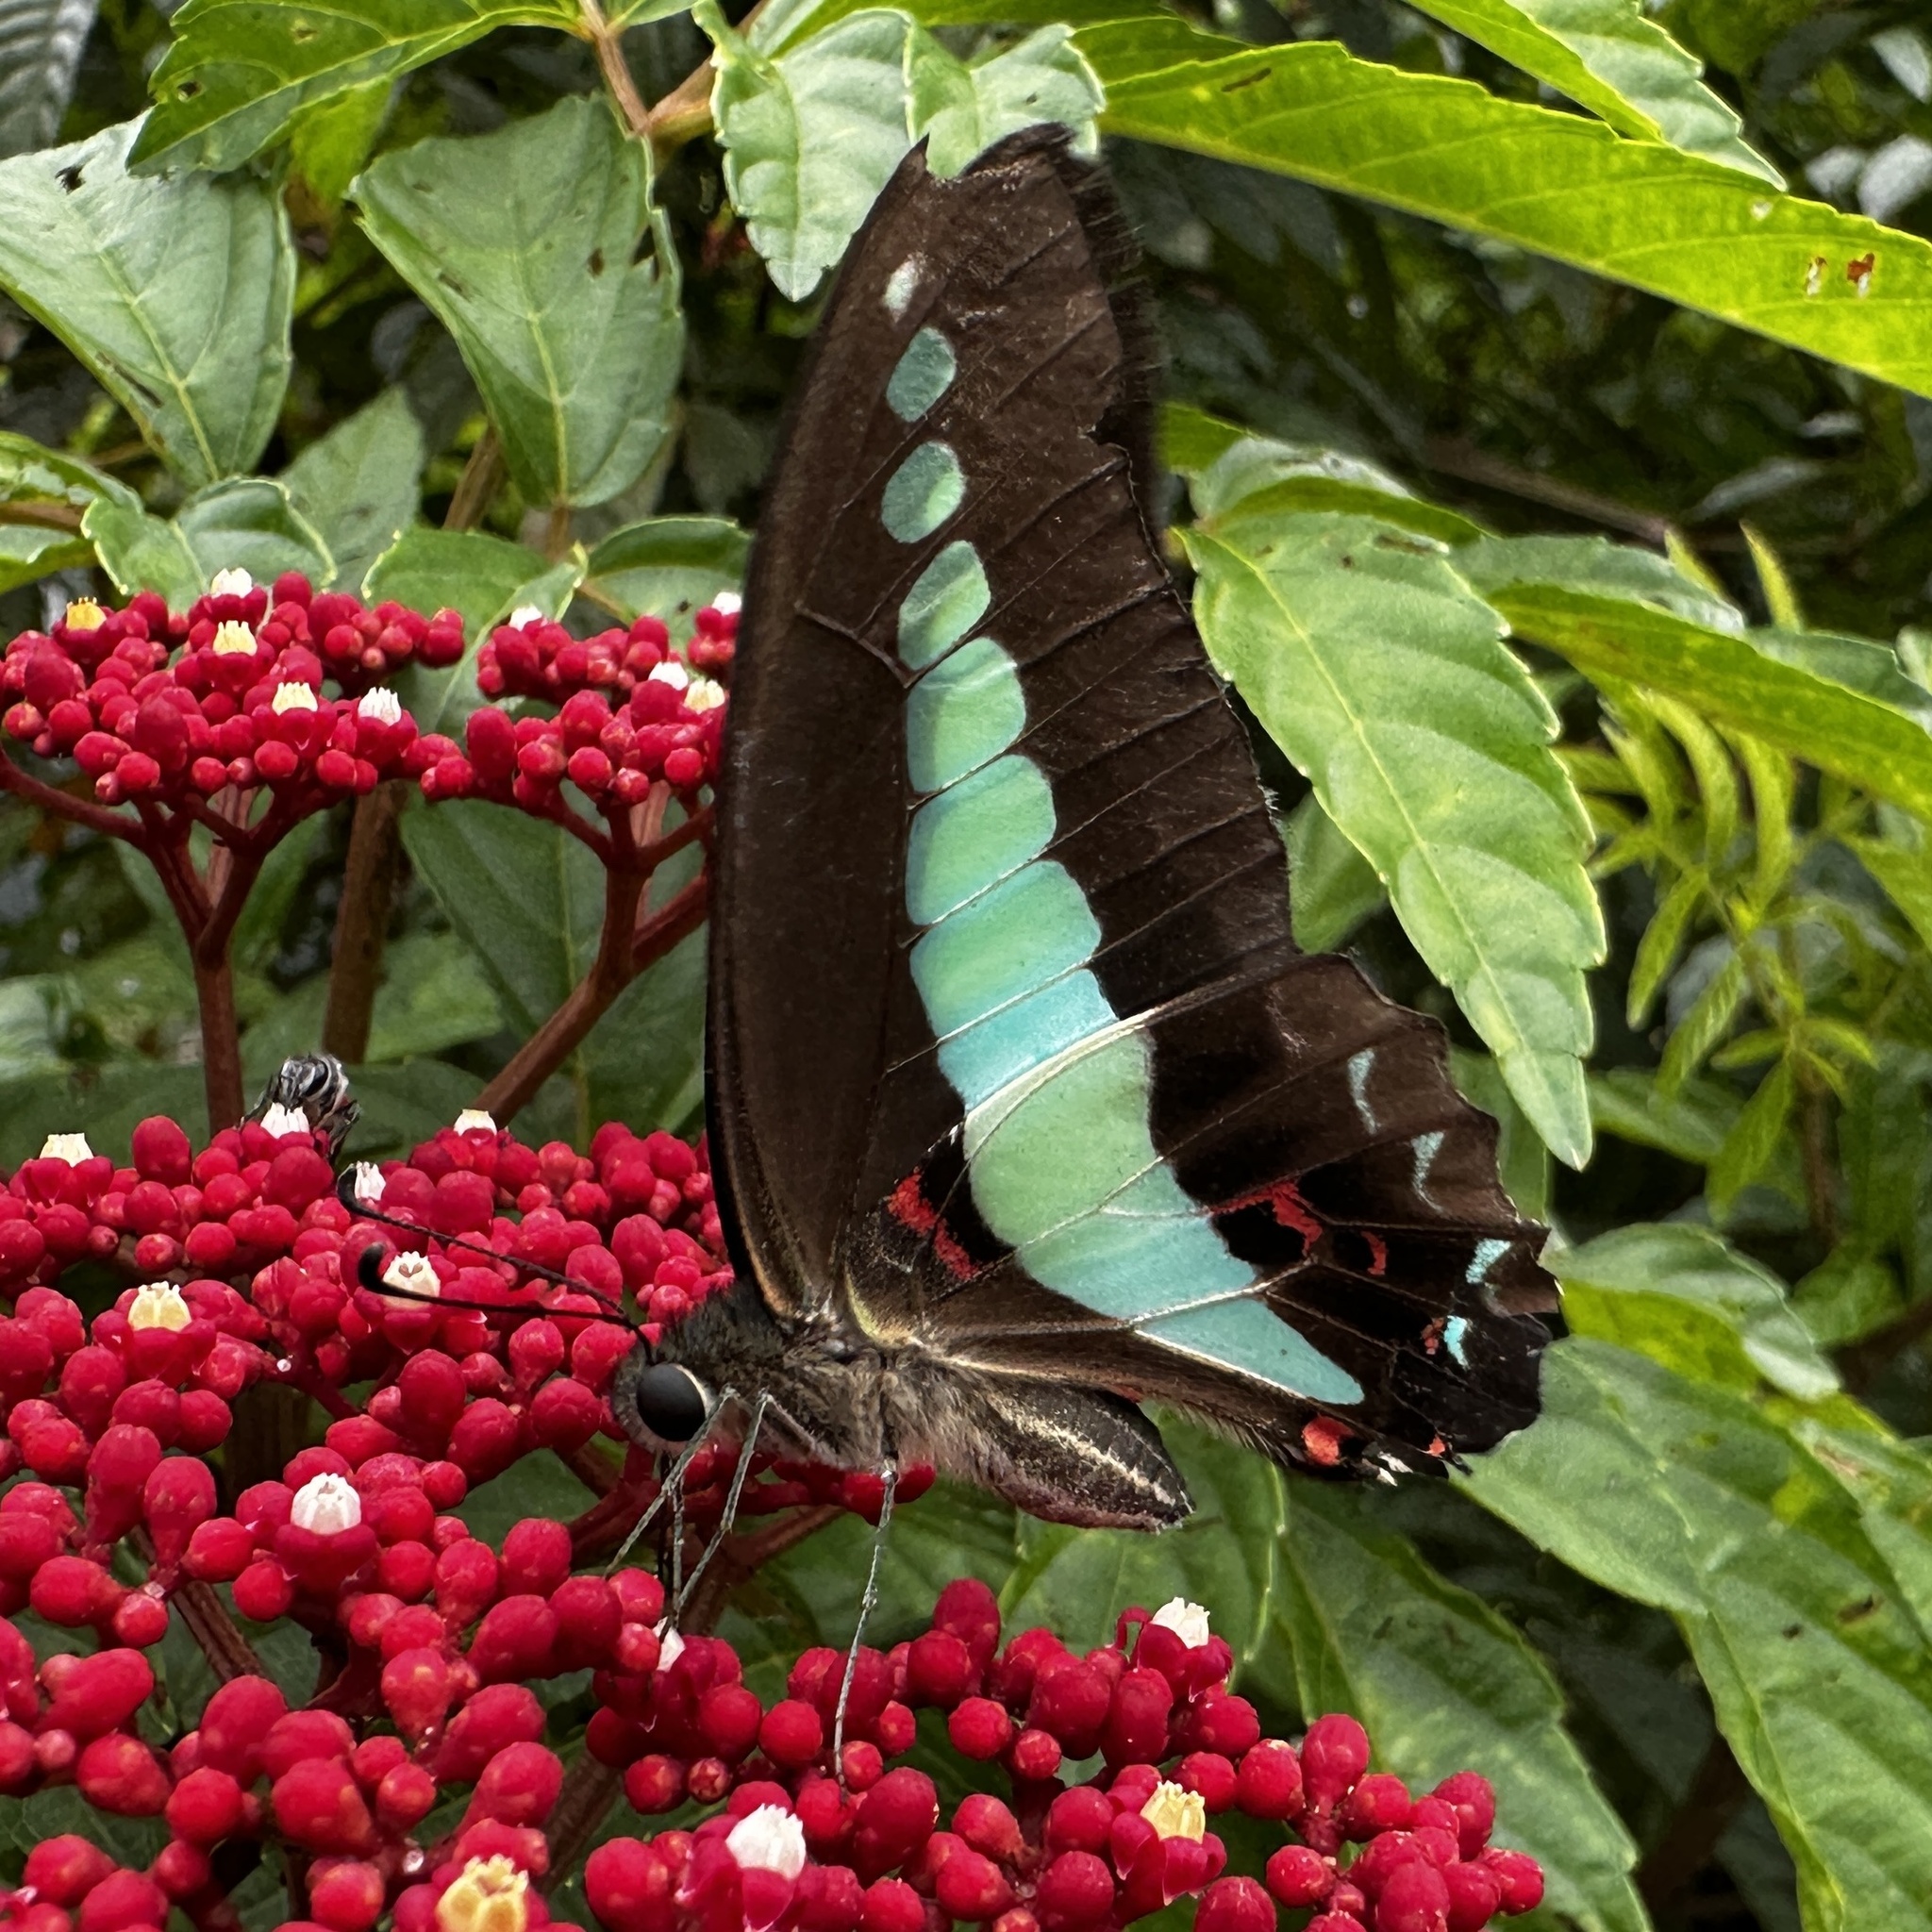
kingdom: Fungi
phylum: Ascomycota
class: Sordariomycetes
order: Microascales
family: Microascaceae
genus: Graphium
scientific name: Graphium sarpedon
